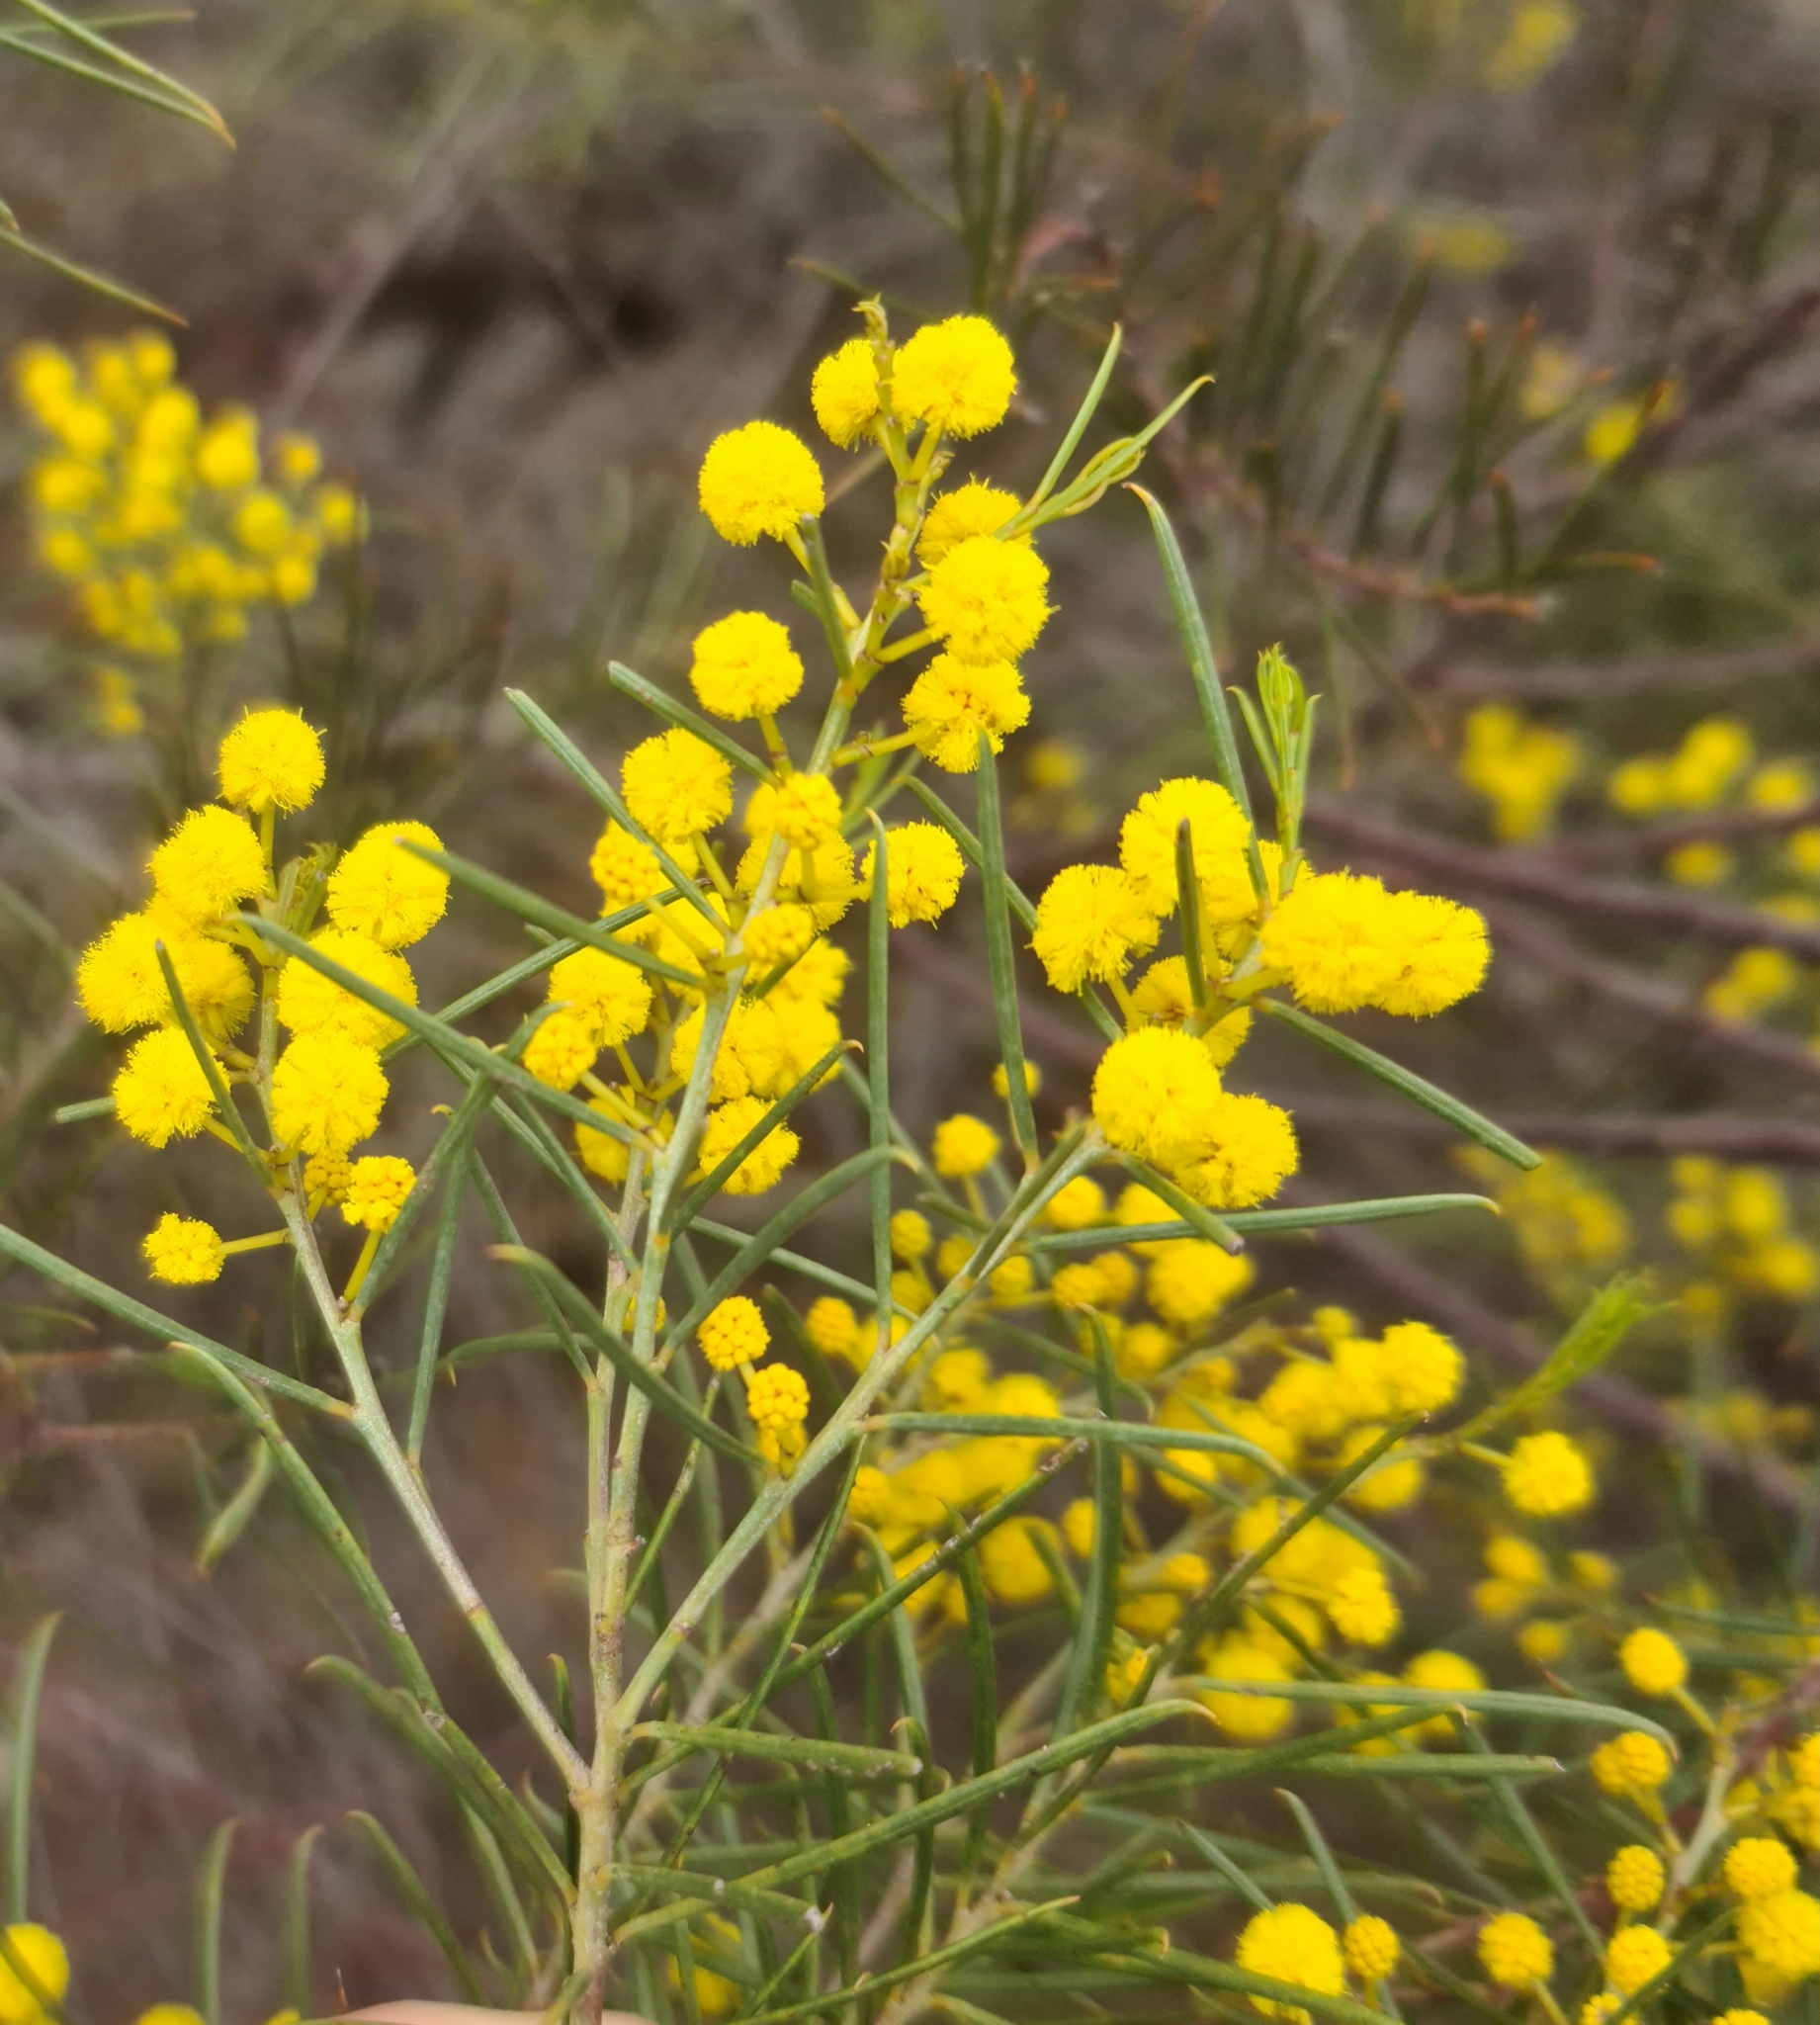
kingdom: Plantae
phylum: Tracheophyta
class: Magnoliopsida
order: Fabales
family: Fabaceae
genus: Acacia
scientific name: Acacia euthycarpa
